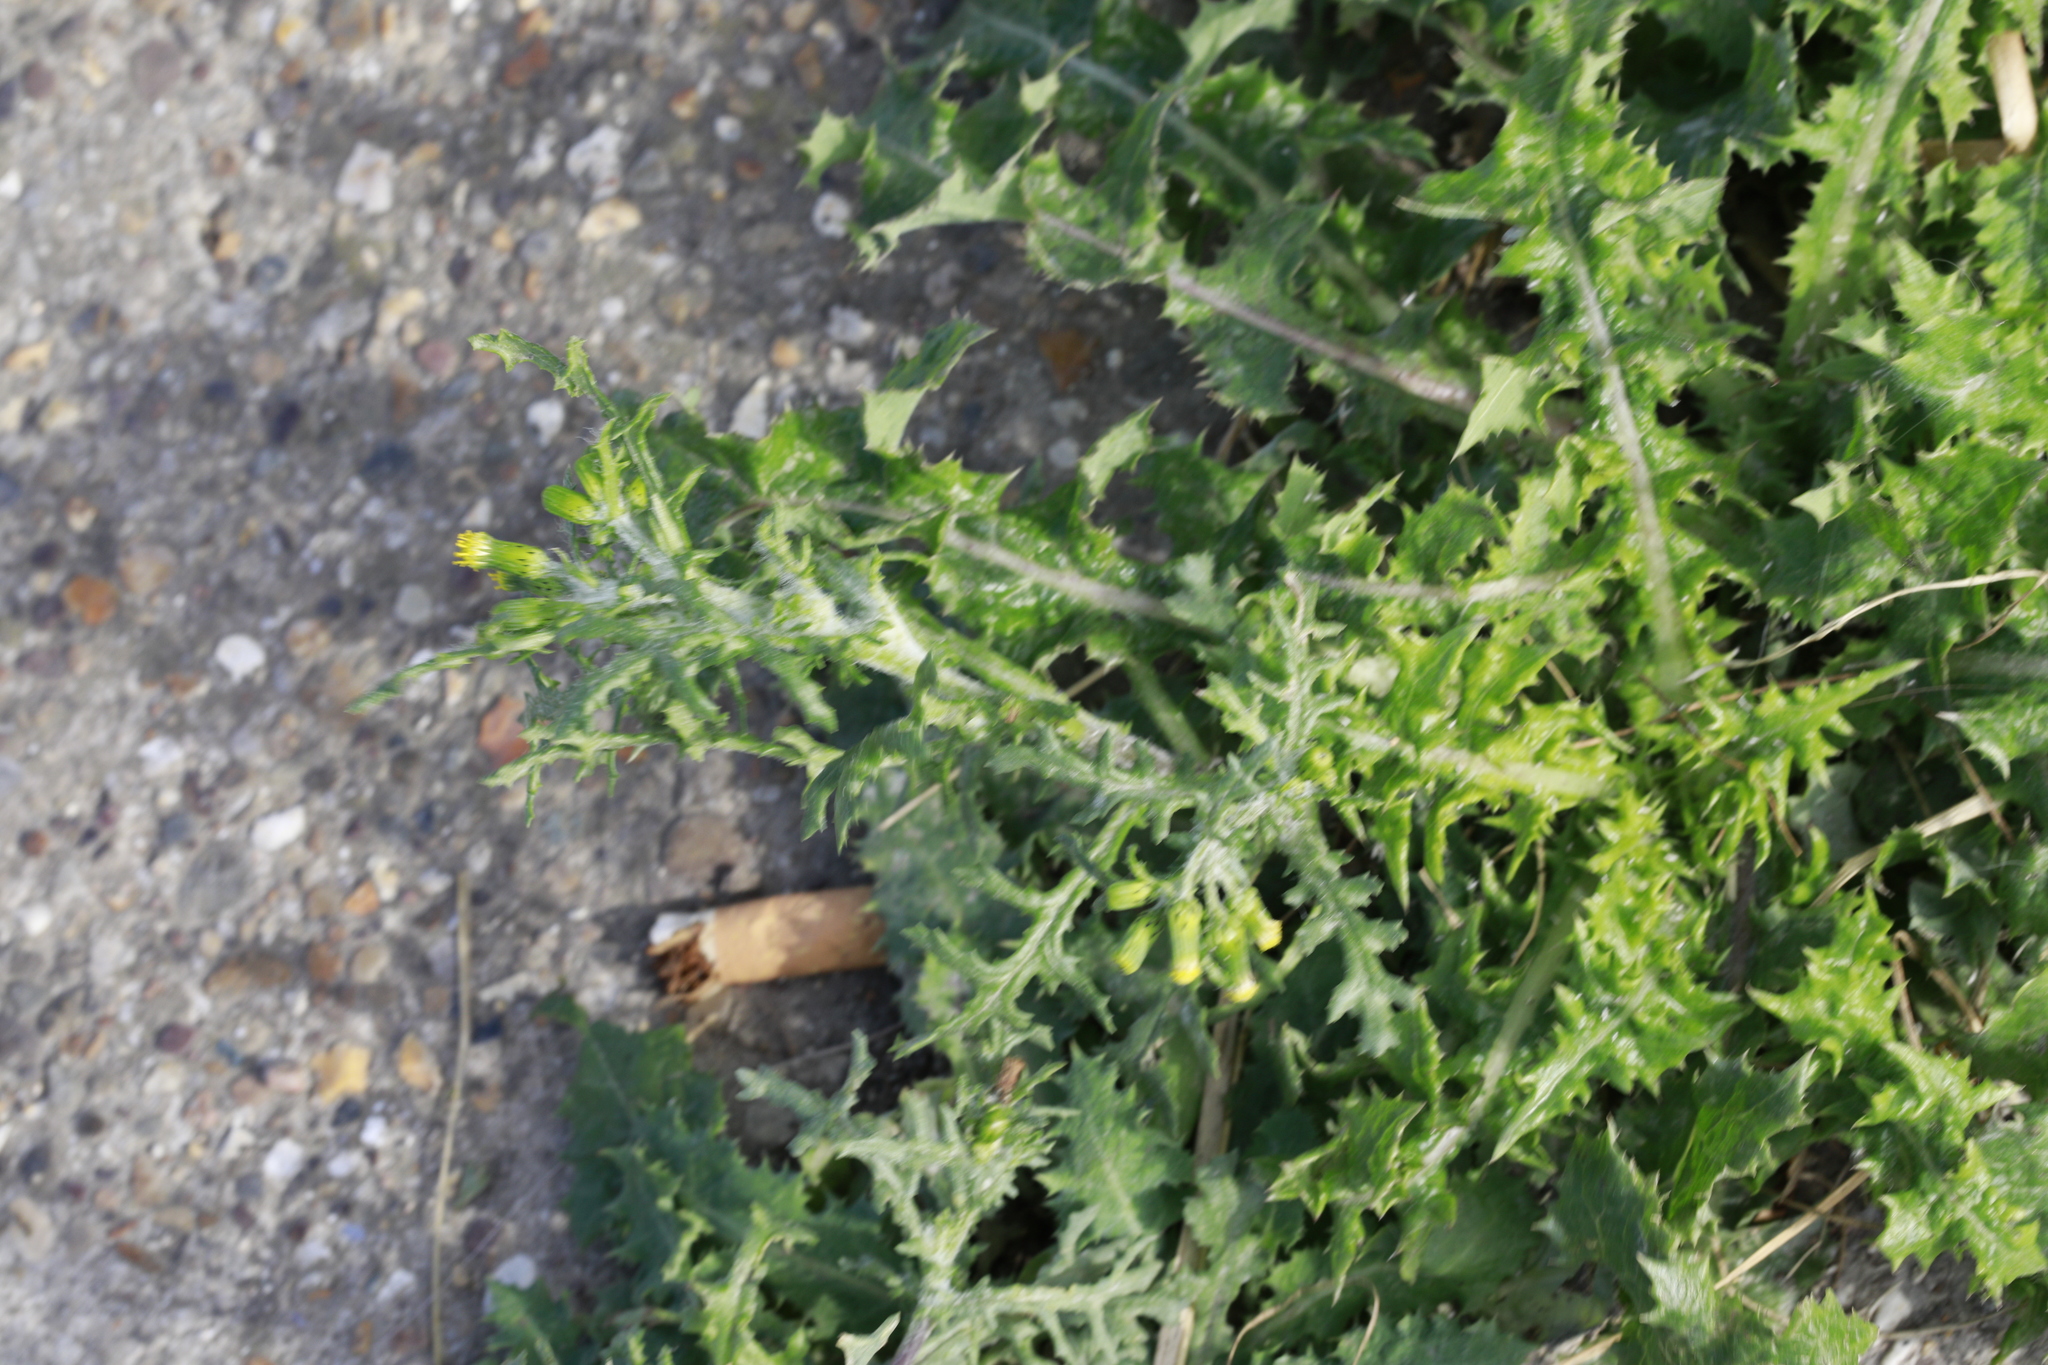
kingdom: Plantae
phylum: Tracheophyta
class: Magnoliopsida
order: Asterales
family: Asteraceae
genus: Sonchus
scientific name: Sonchus asper
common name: Prickly sow-thistle
